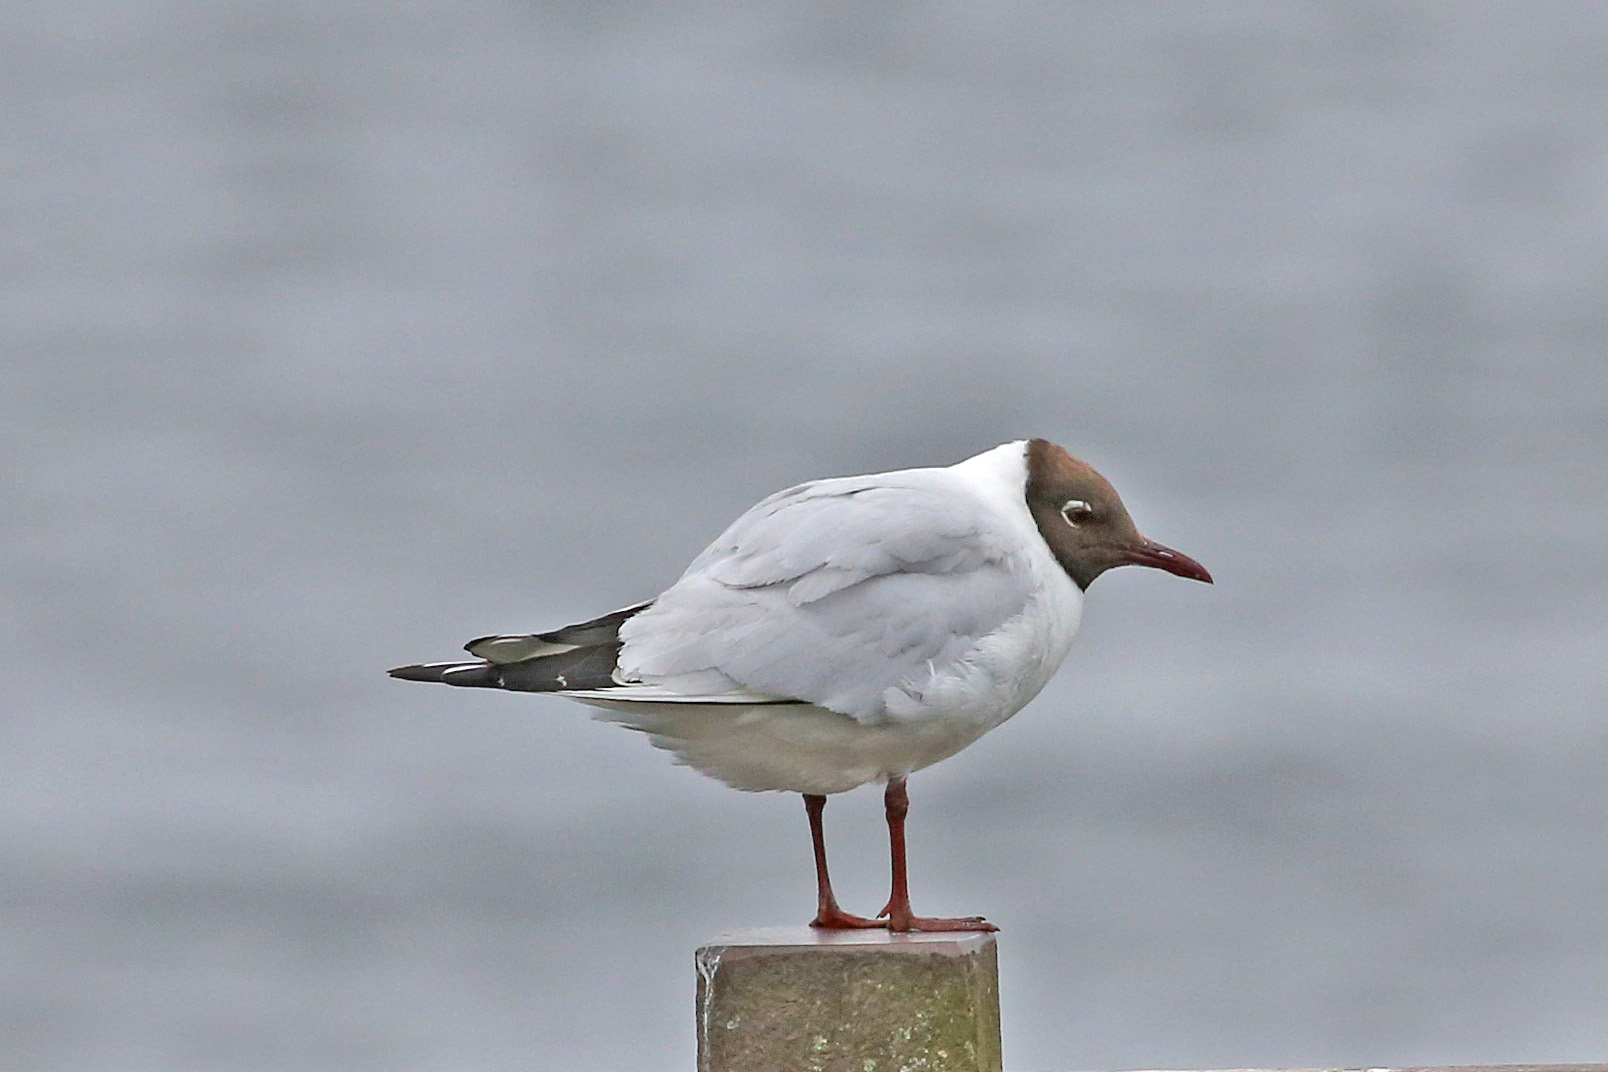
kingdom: Animalia
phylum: Chordata
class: Aves
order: Charadriiformes
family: Laridae
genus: Chroicocephalus
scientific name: Chroicocephalus ridibundus
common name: Black-headed gull
